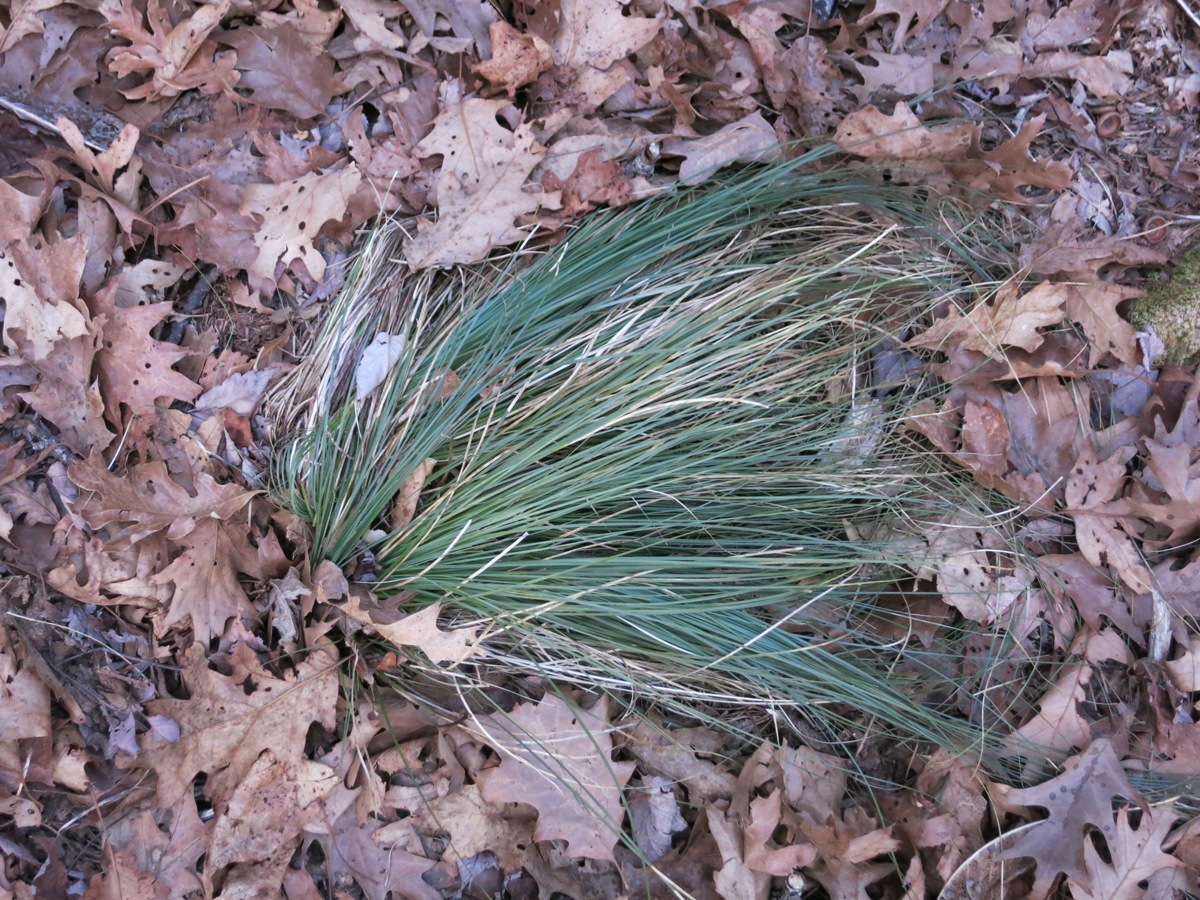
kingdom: Plantae
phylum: Tracheophyta
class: Liliopsida
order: Liliales
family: Melanthiaceae
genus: Xerophyllum
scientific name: Xerophyllum asphodeloides
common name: Mountain-asphodel
